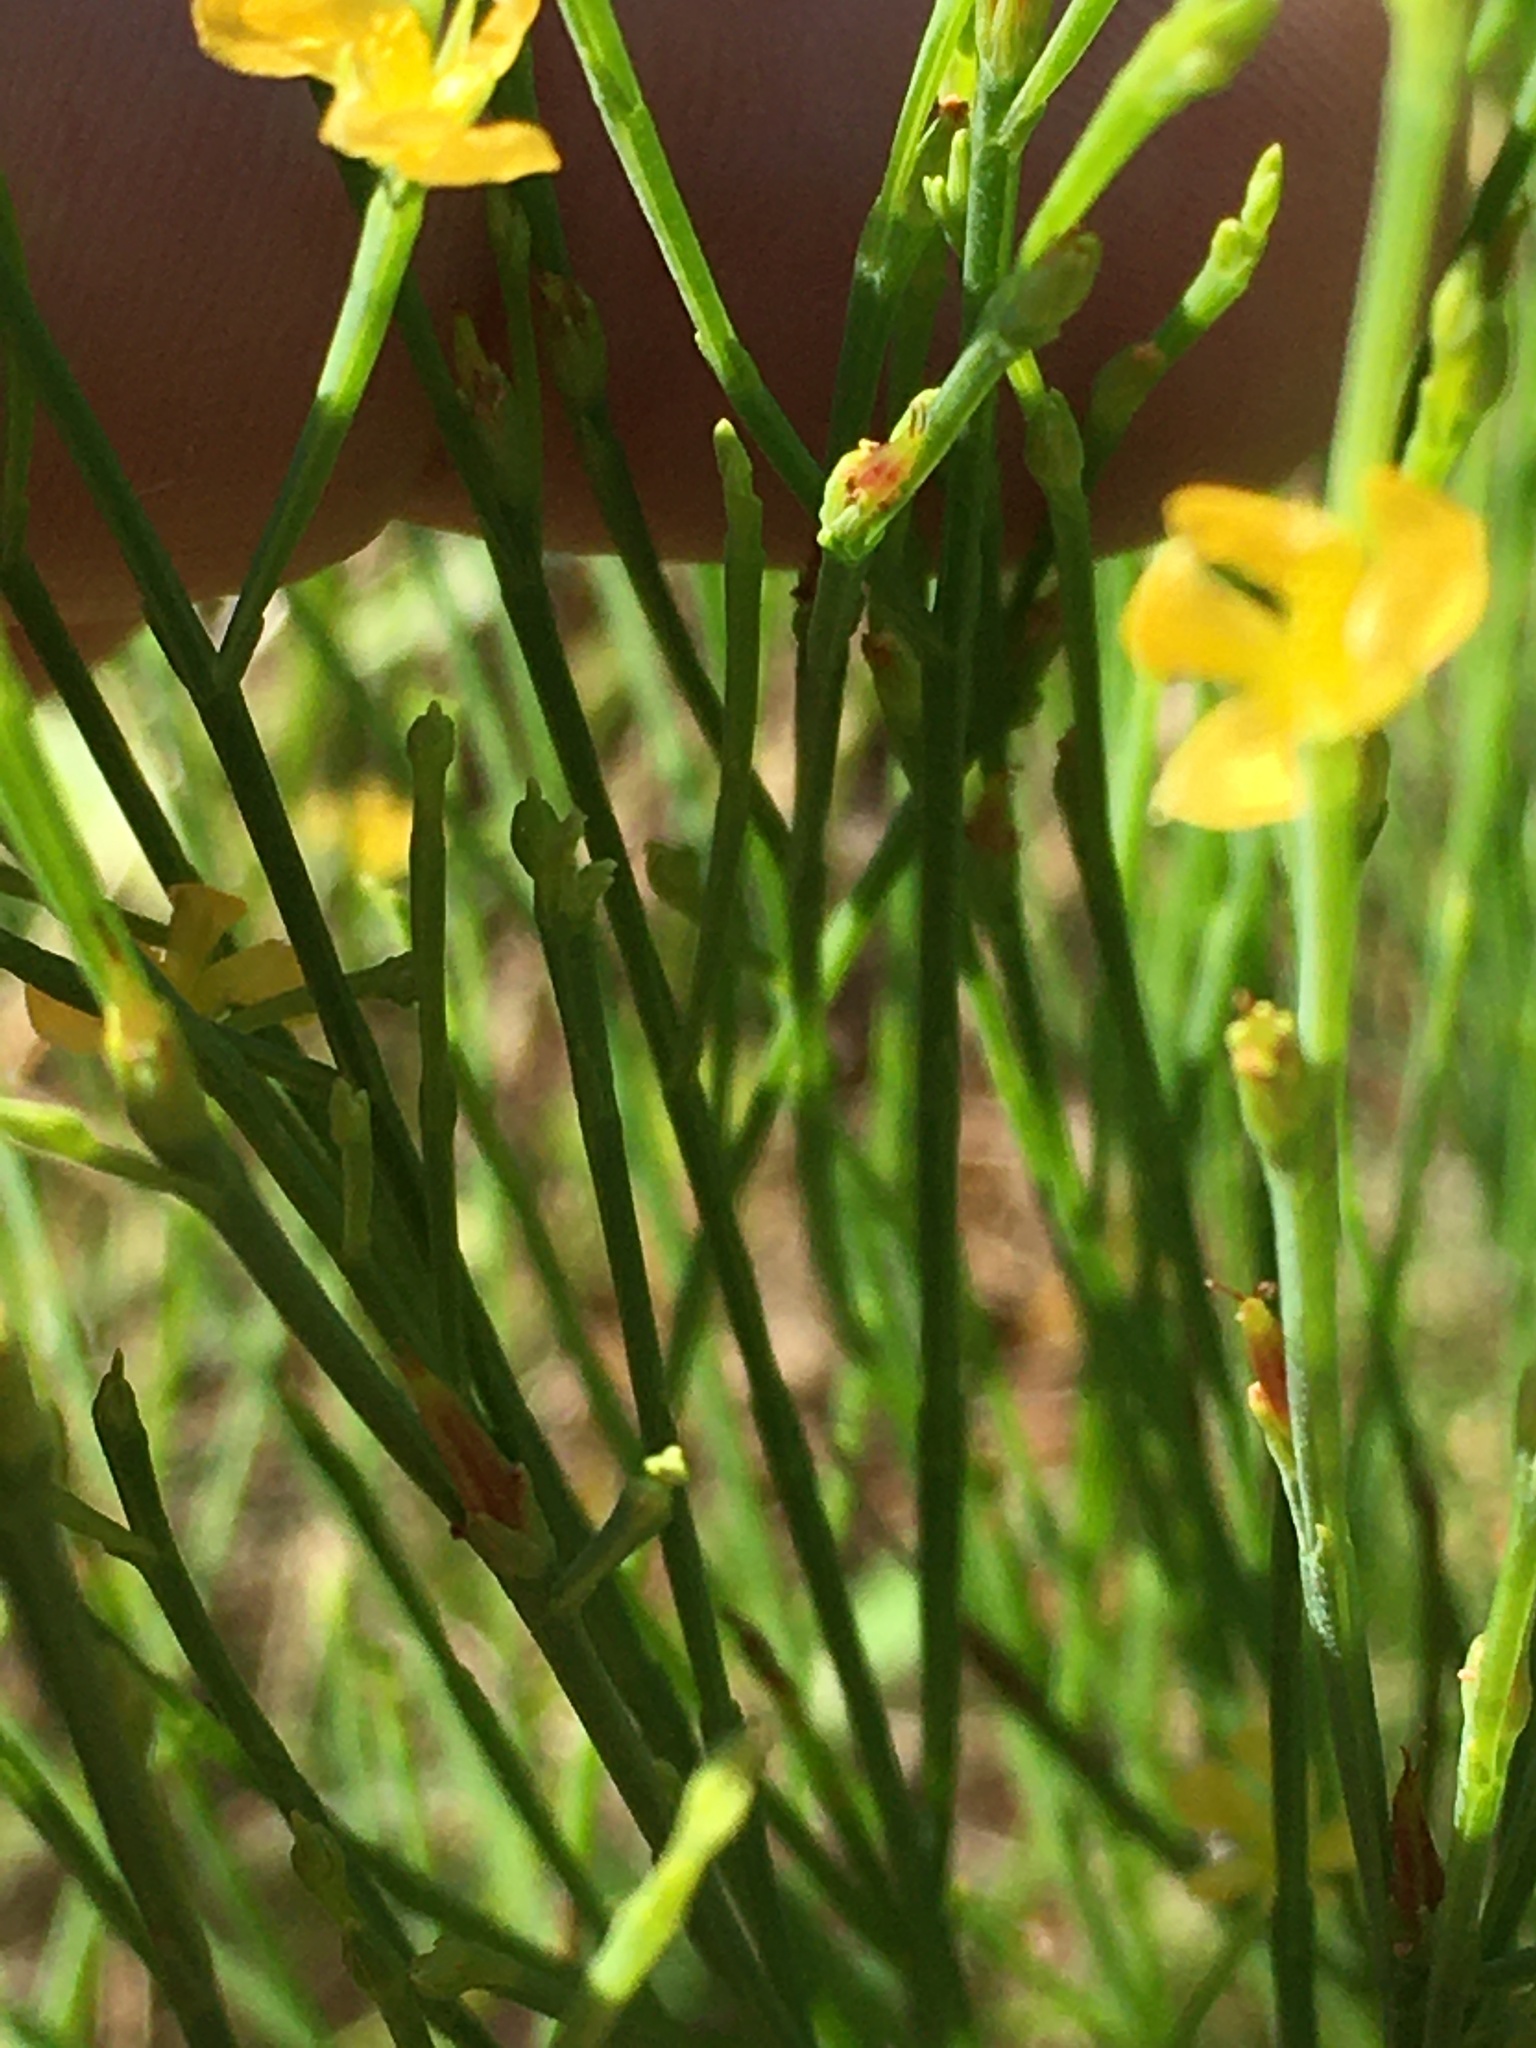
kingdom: Plantae
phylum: Tracheophyta
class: Magnoliopsida
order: Malpighiales
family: Hypericaceae
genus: Hypericum
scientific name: Hypericum gentianoides
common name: Gentian-leaved st. john's-wort
